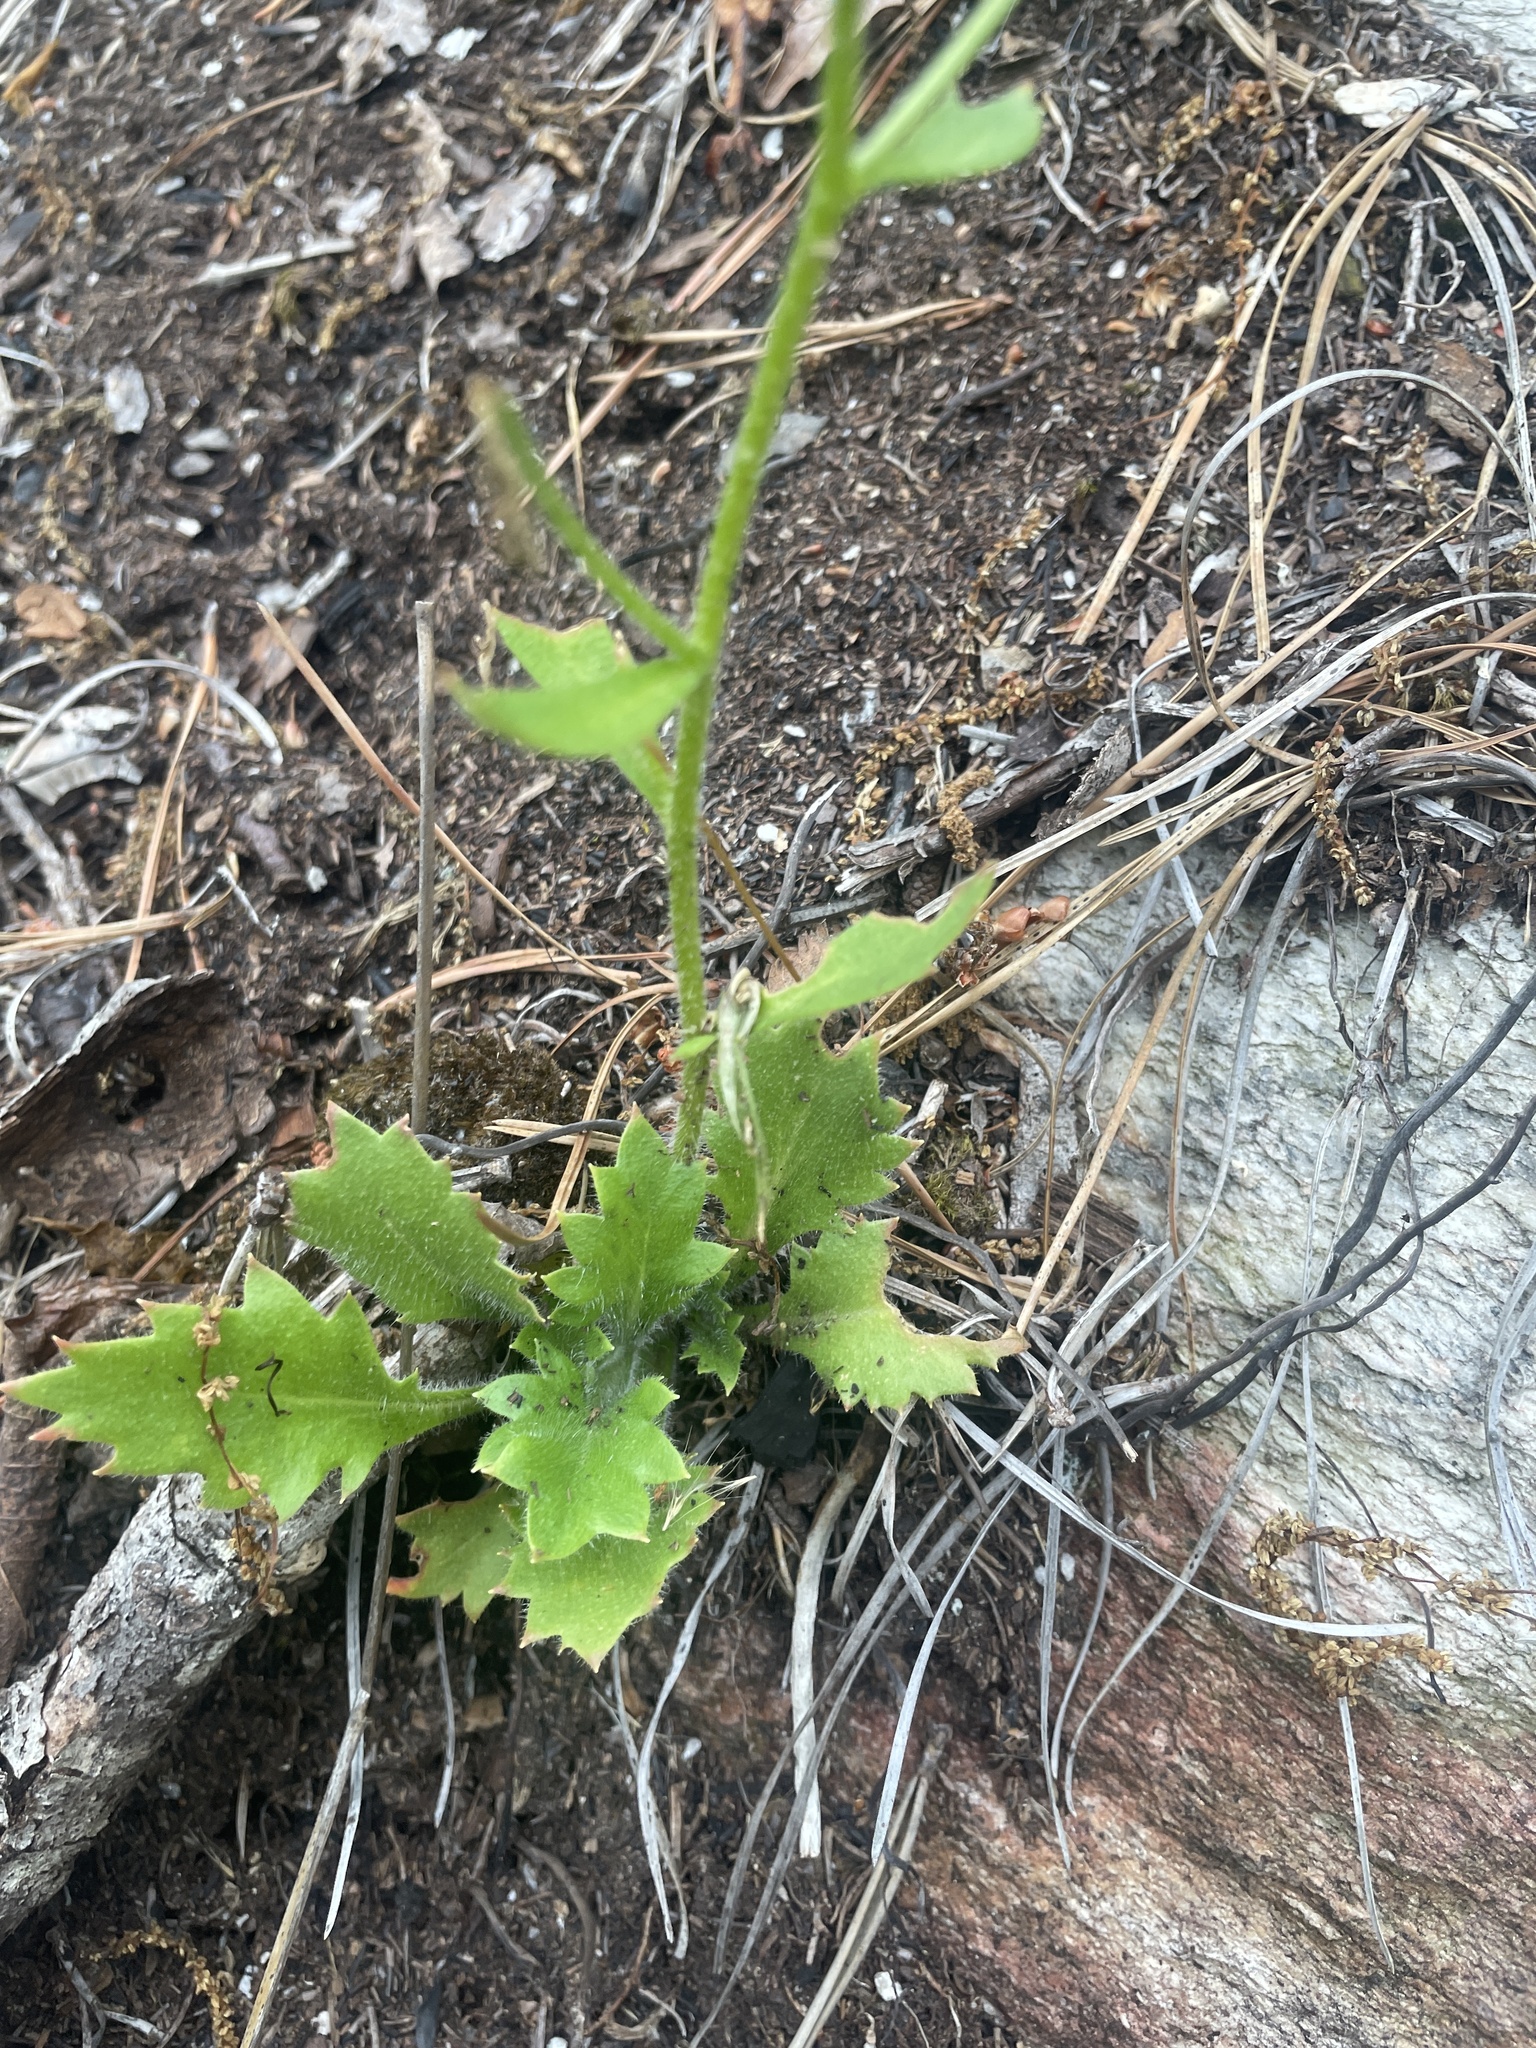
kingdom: Plantae
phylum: Tracheophyta
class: Magnoliopsida
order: Saxifragales
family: Saxifragaceae
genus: Micranthes
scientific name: Micranthes petiolaris
